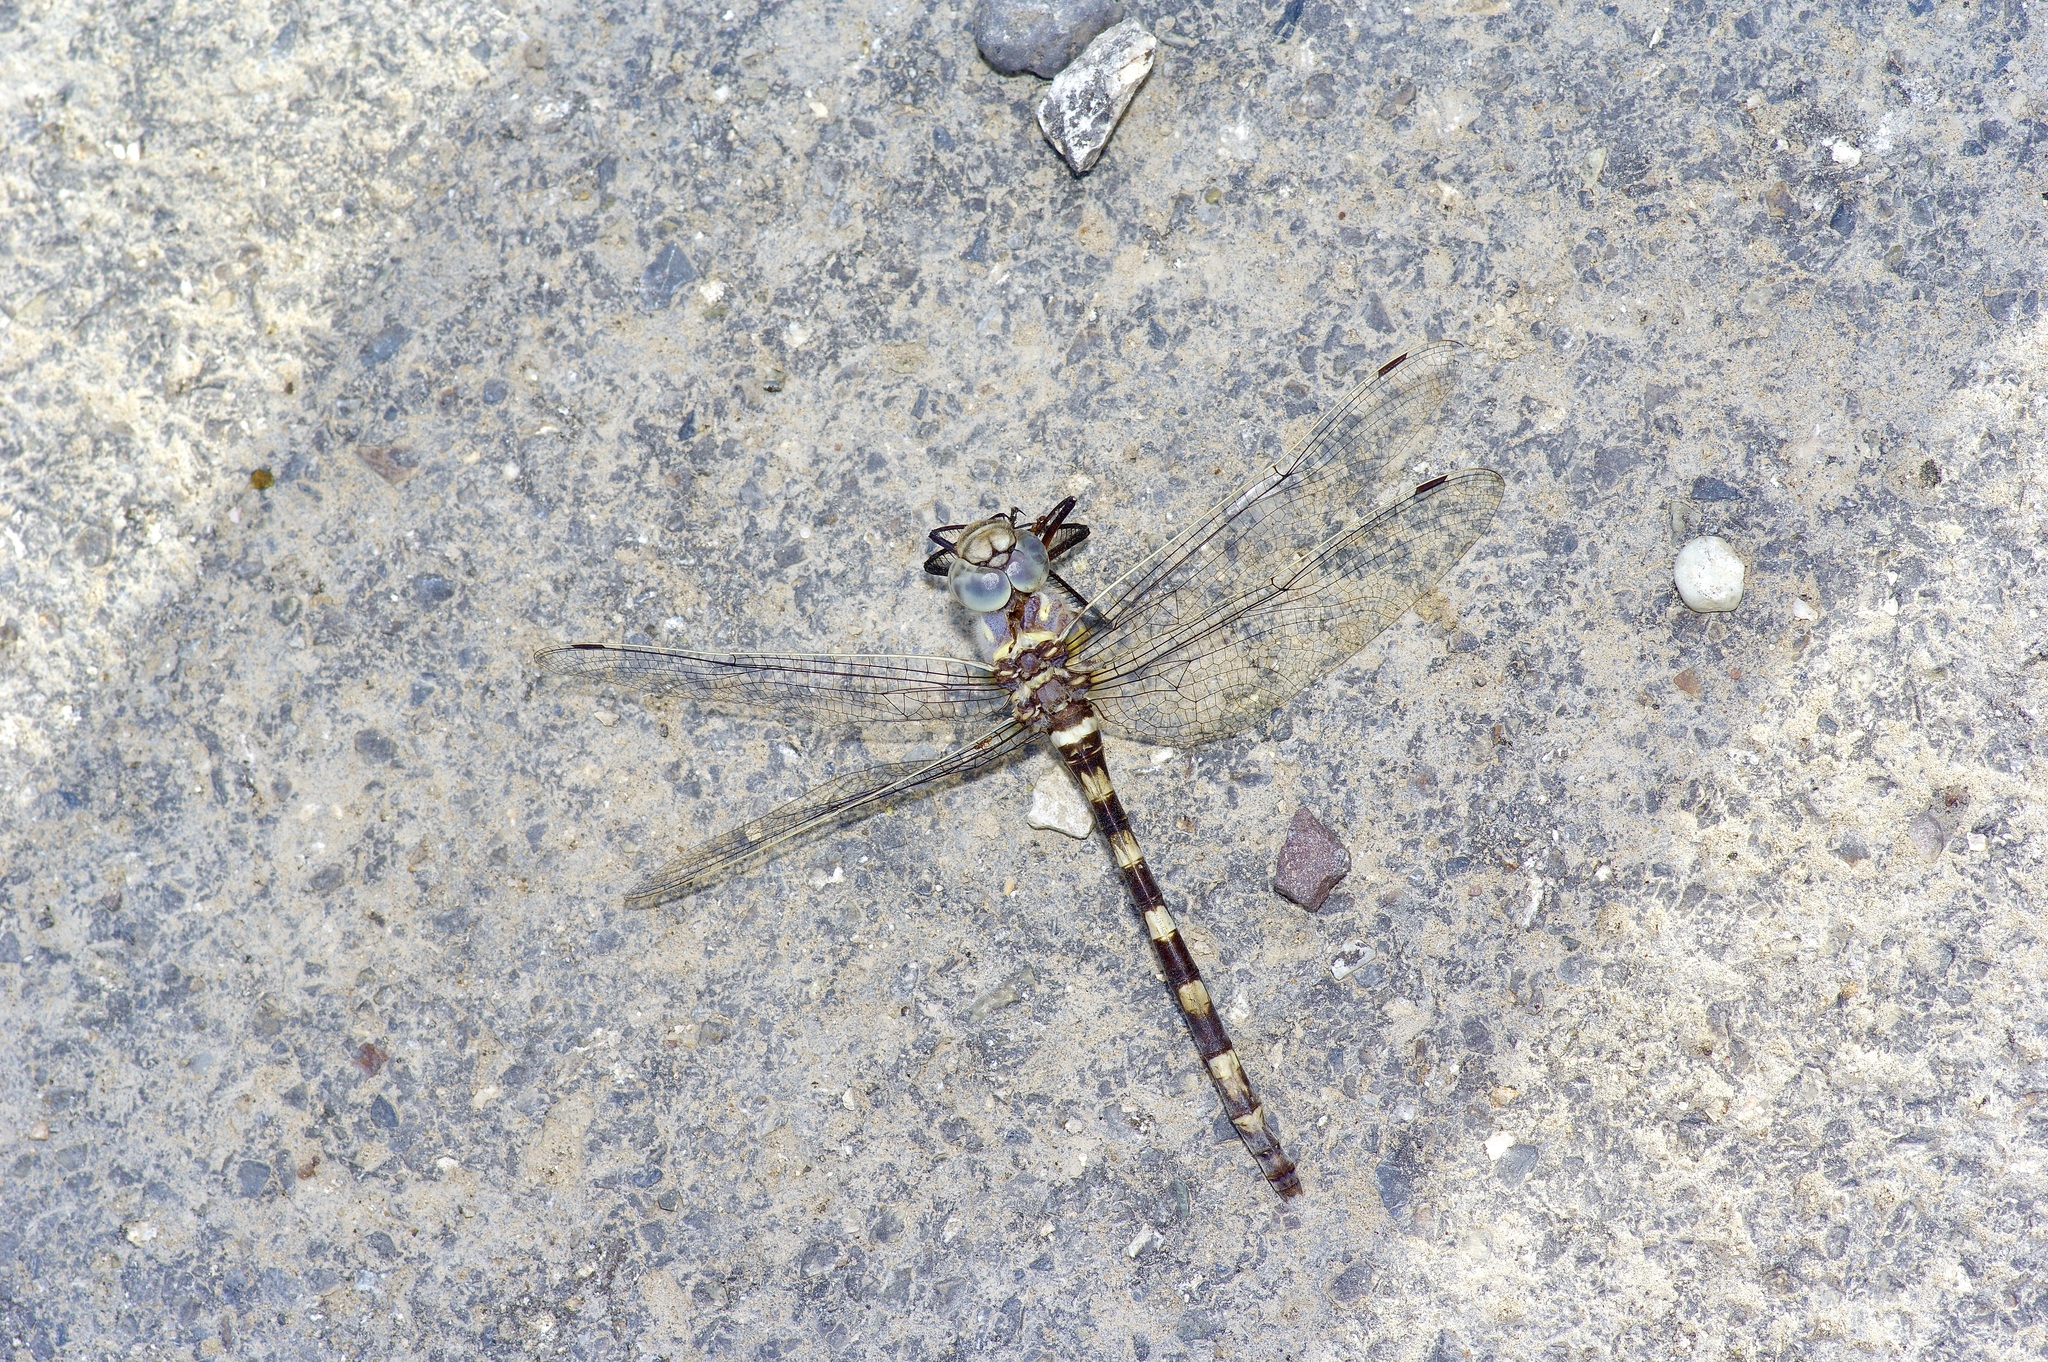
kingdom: Animalia
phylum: Arthropoda
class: Insecta
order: Odonata
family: Macromiidae
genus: Macromia
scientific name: Macromia annulata
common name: Bronzed river cruiser
